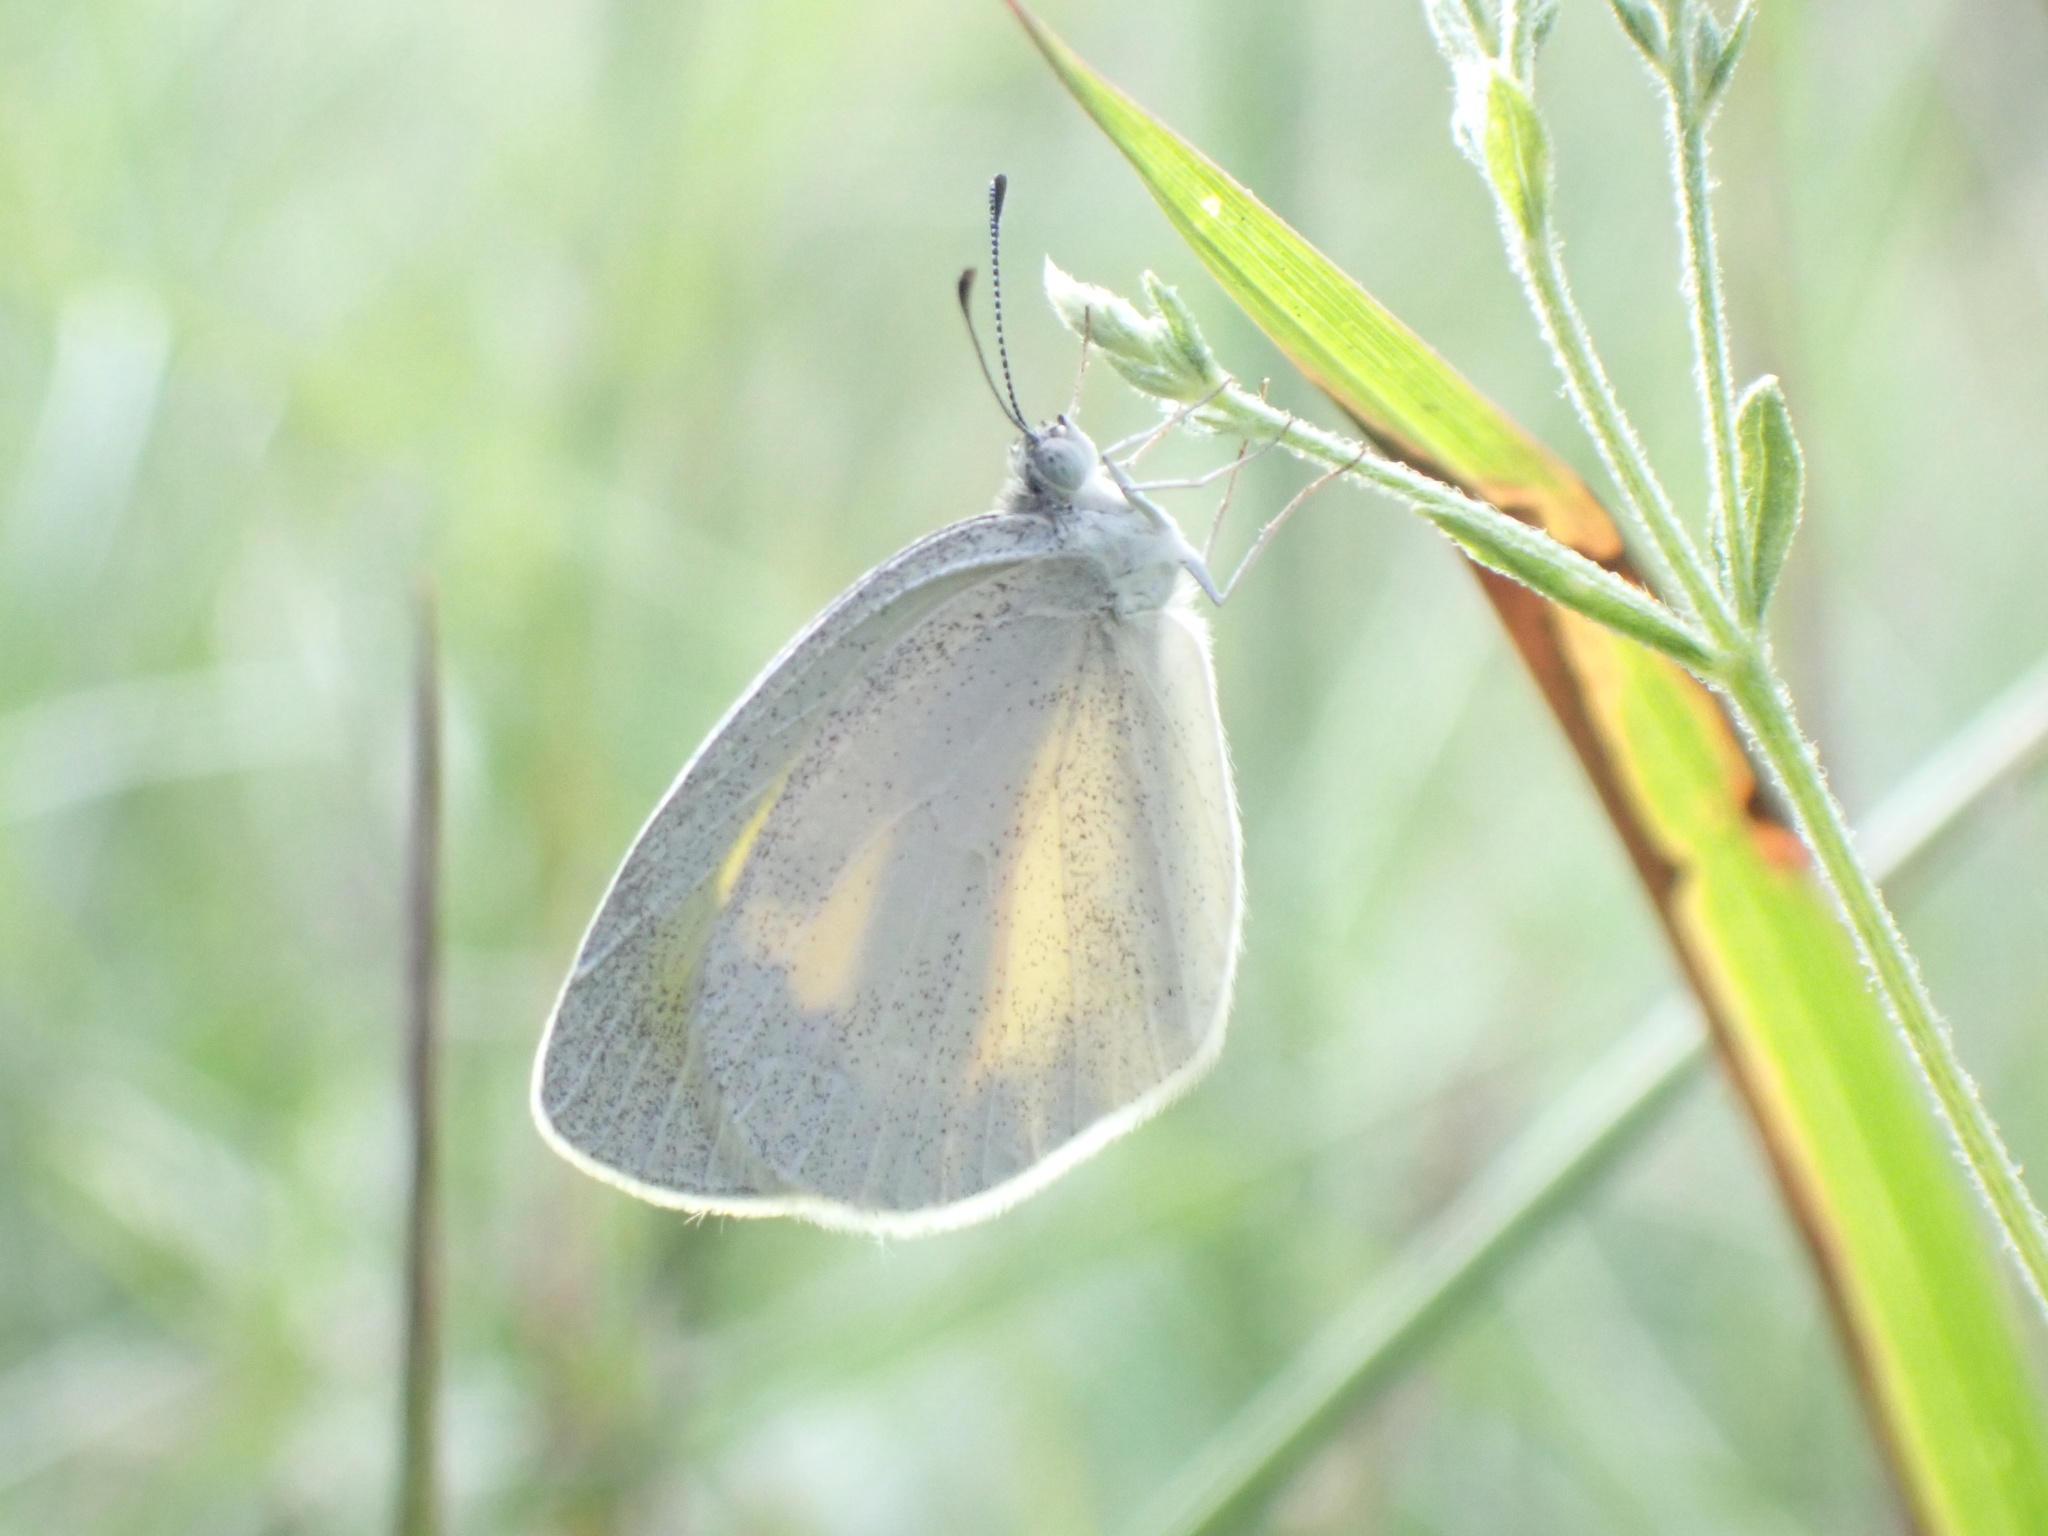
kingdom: Animalia
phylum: Arthropoda
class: Insecta
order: Lepidoptera
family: Pieridae
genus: Eurema
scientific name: Eurema daira
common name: Barred sulphur
